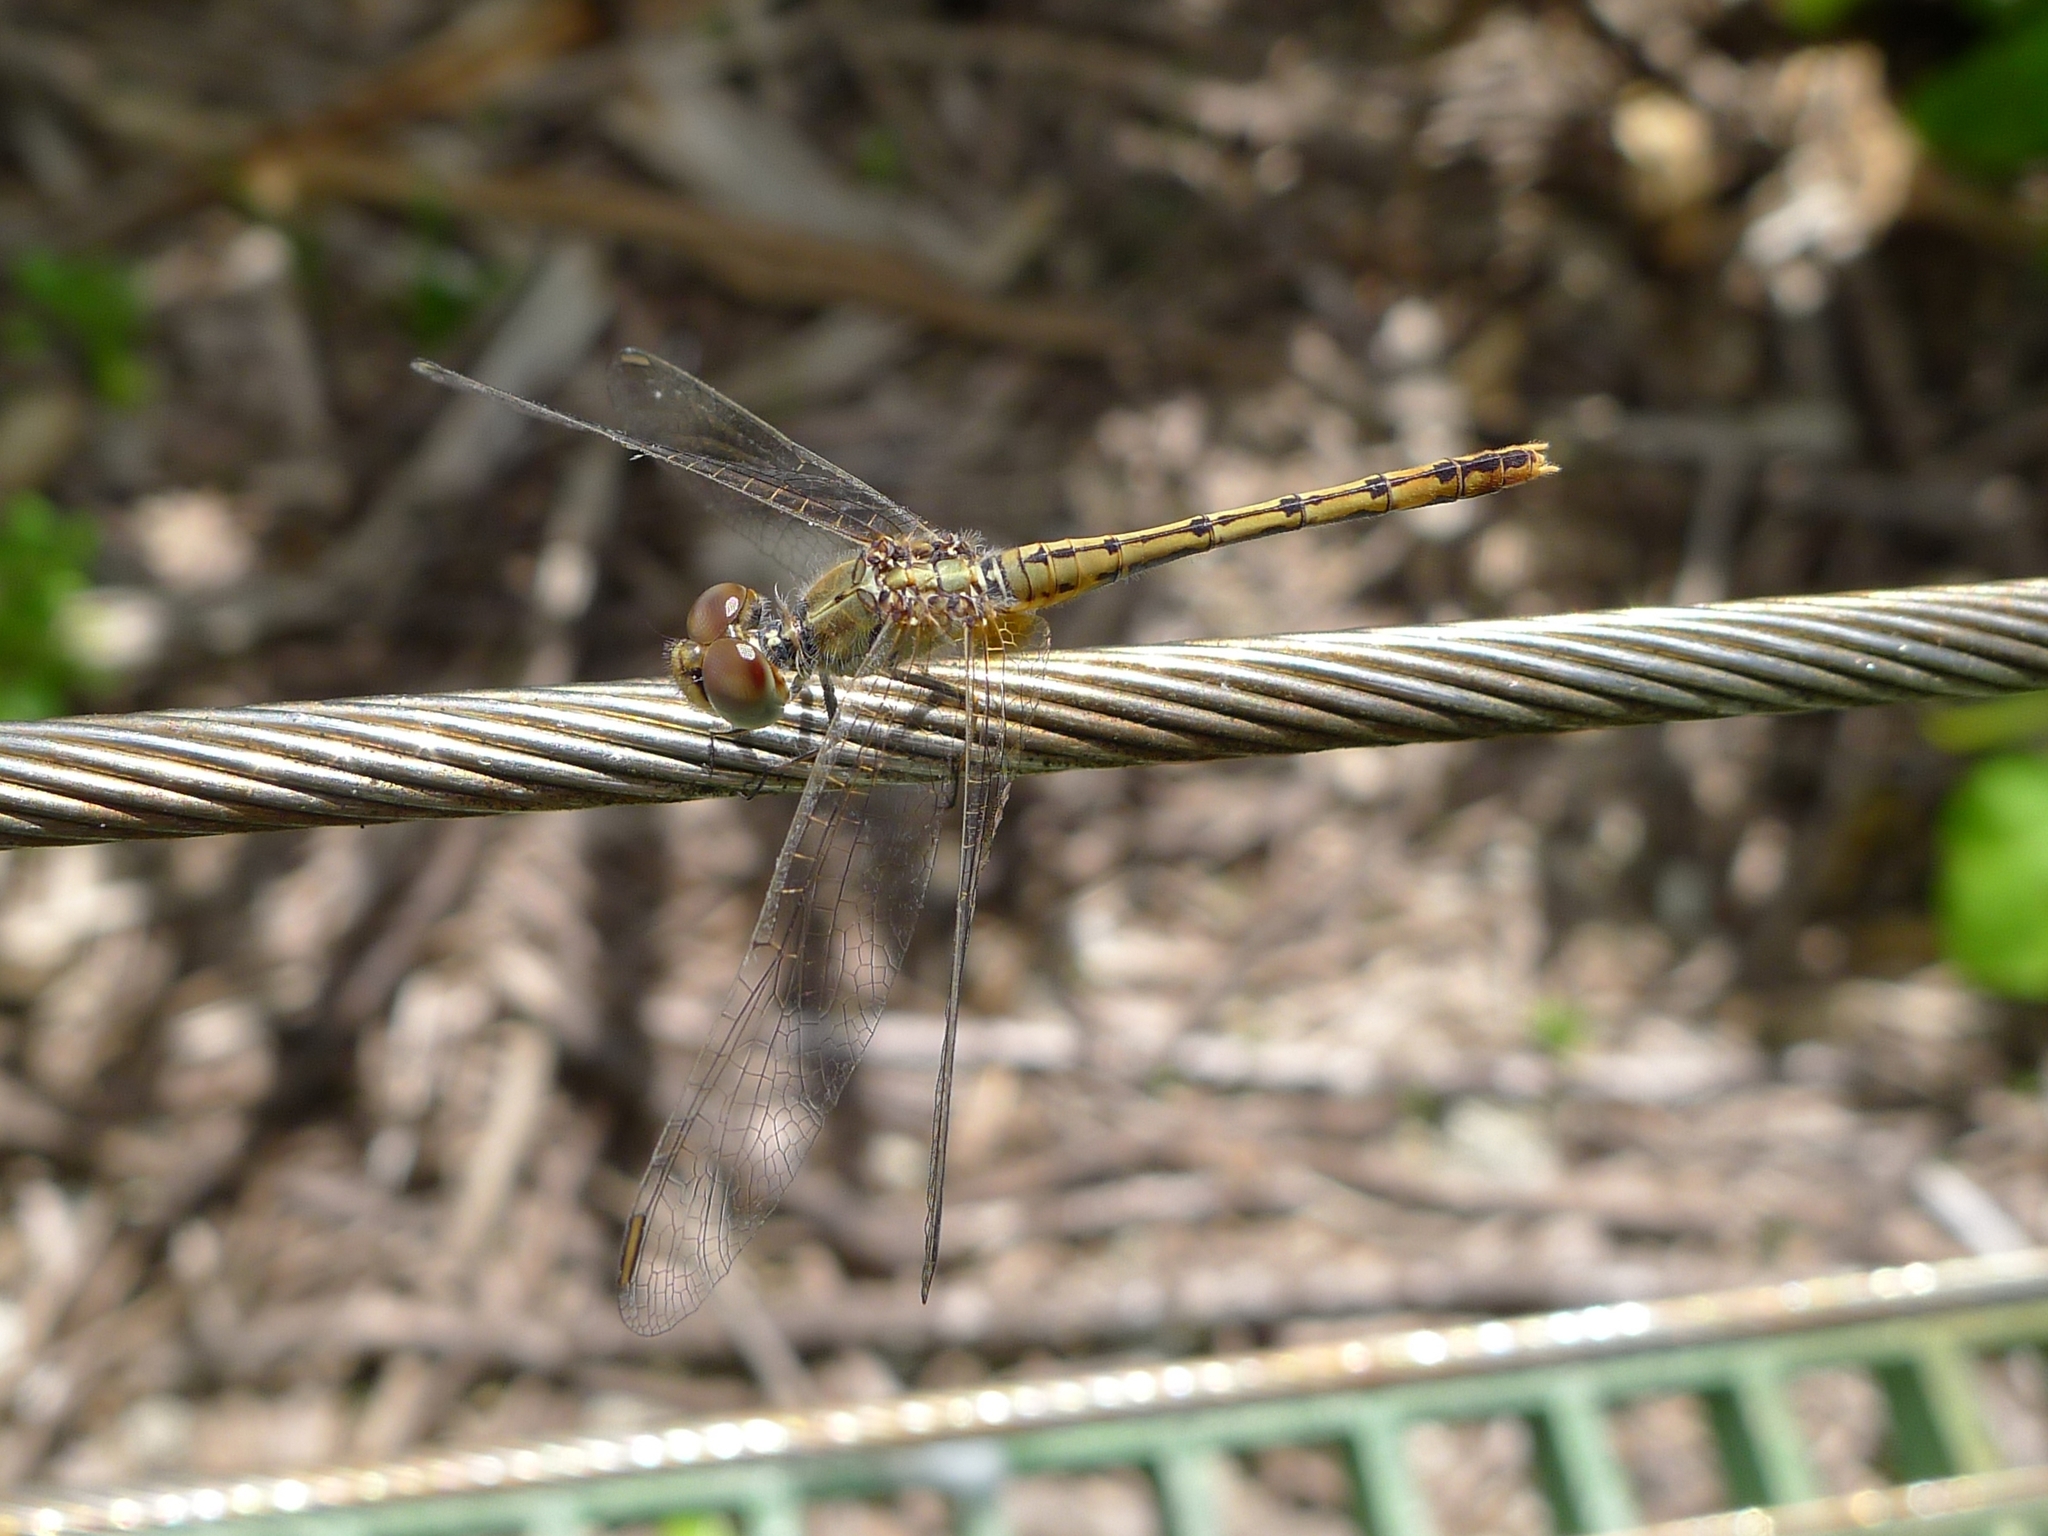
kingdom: Animalia
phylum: Arthropoda
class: Insecta
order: Odonata
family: Libellulidae
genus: Diplacodes
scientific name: Diplacodes bipunctata
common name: Red percher dragonfly
